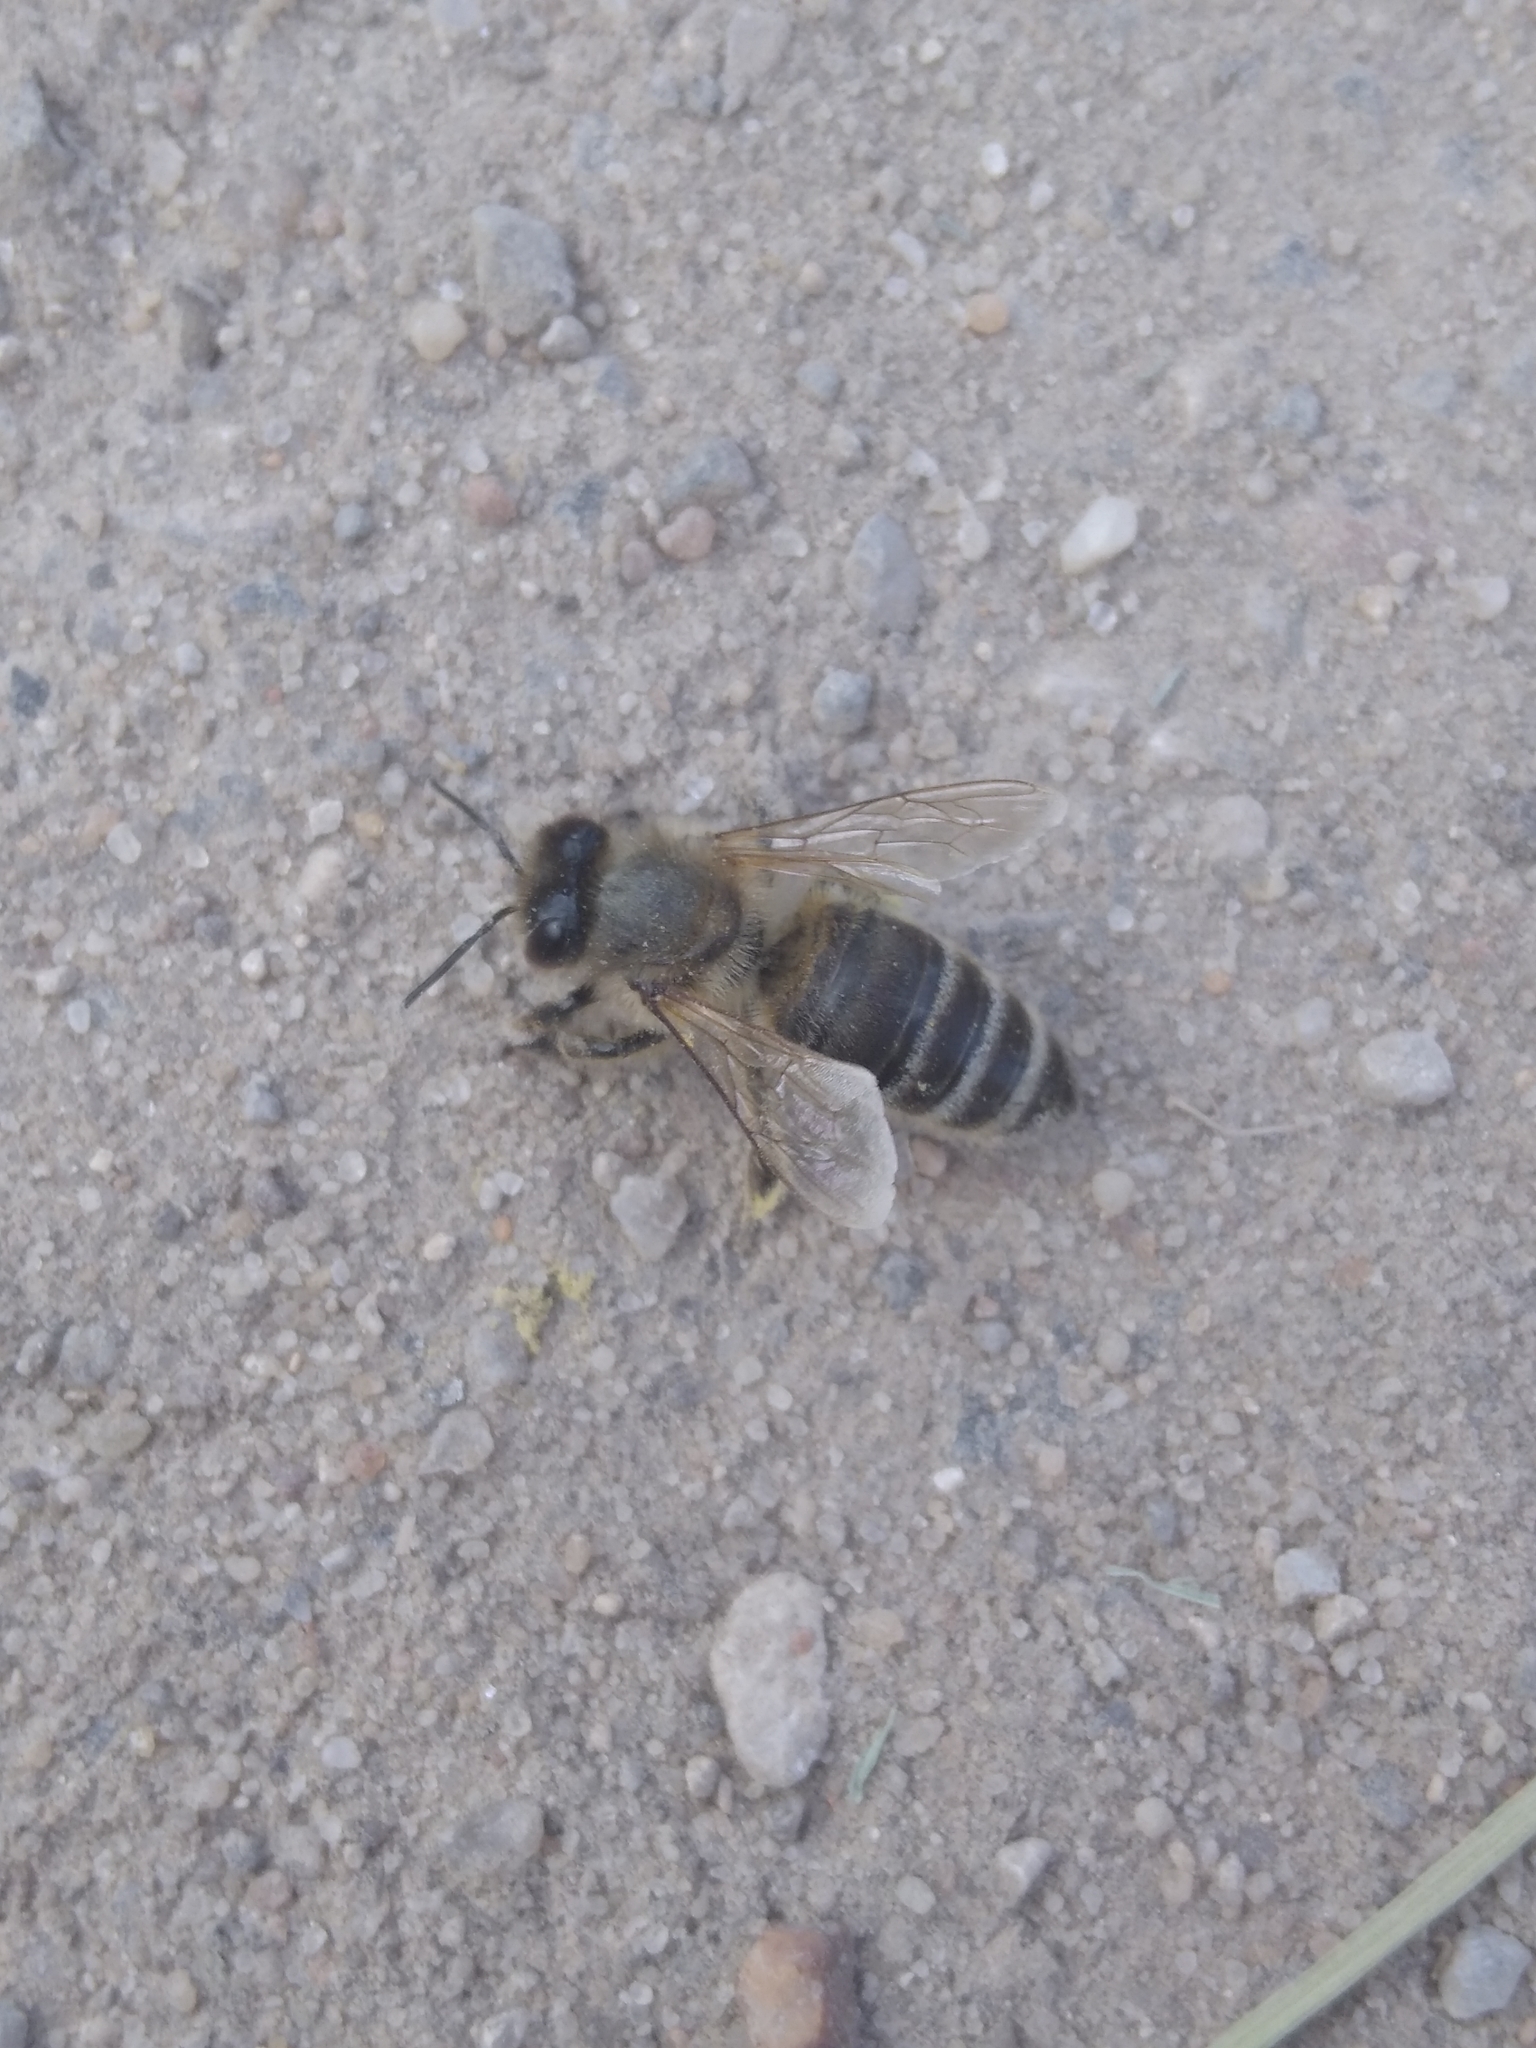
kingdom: Animalia
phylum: Arthropoda
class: Insecta
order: Hymenoptera
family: Apidae
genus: Apis
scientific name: Apis mellifera
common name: Honey bee
